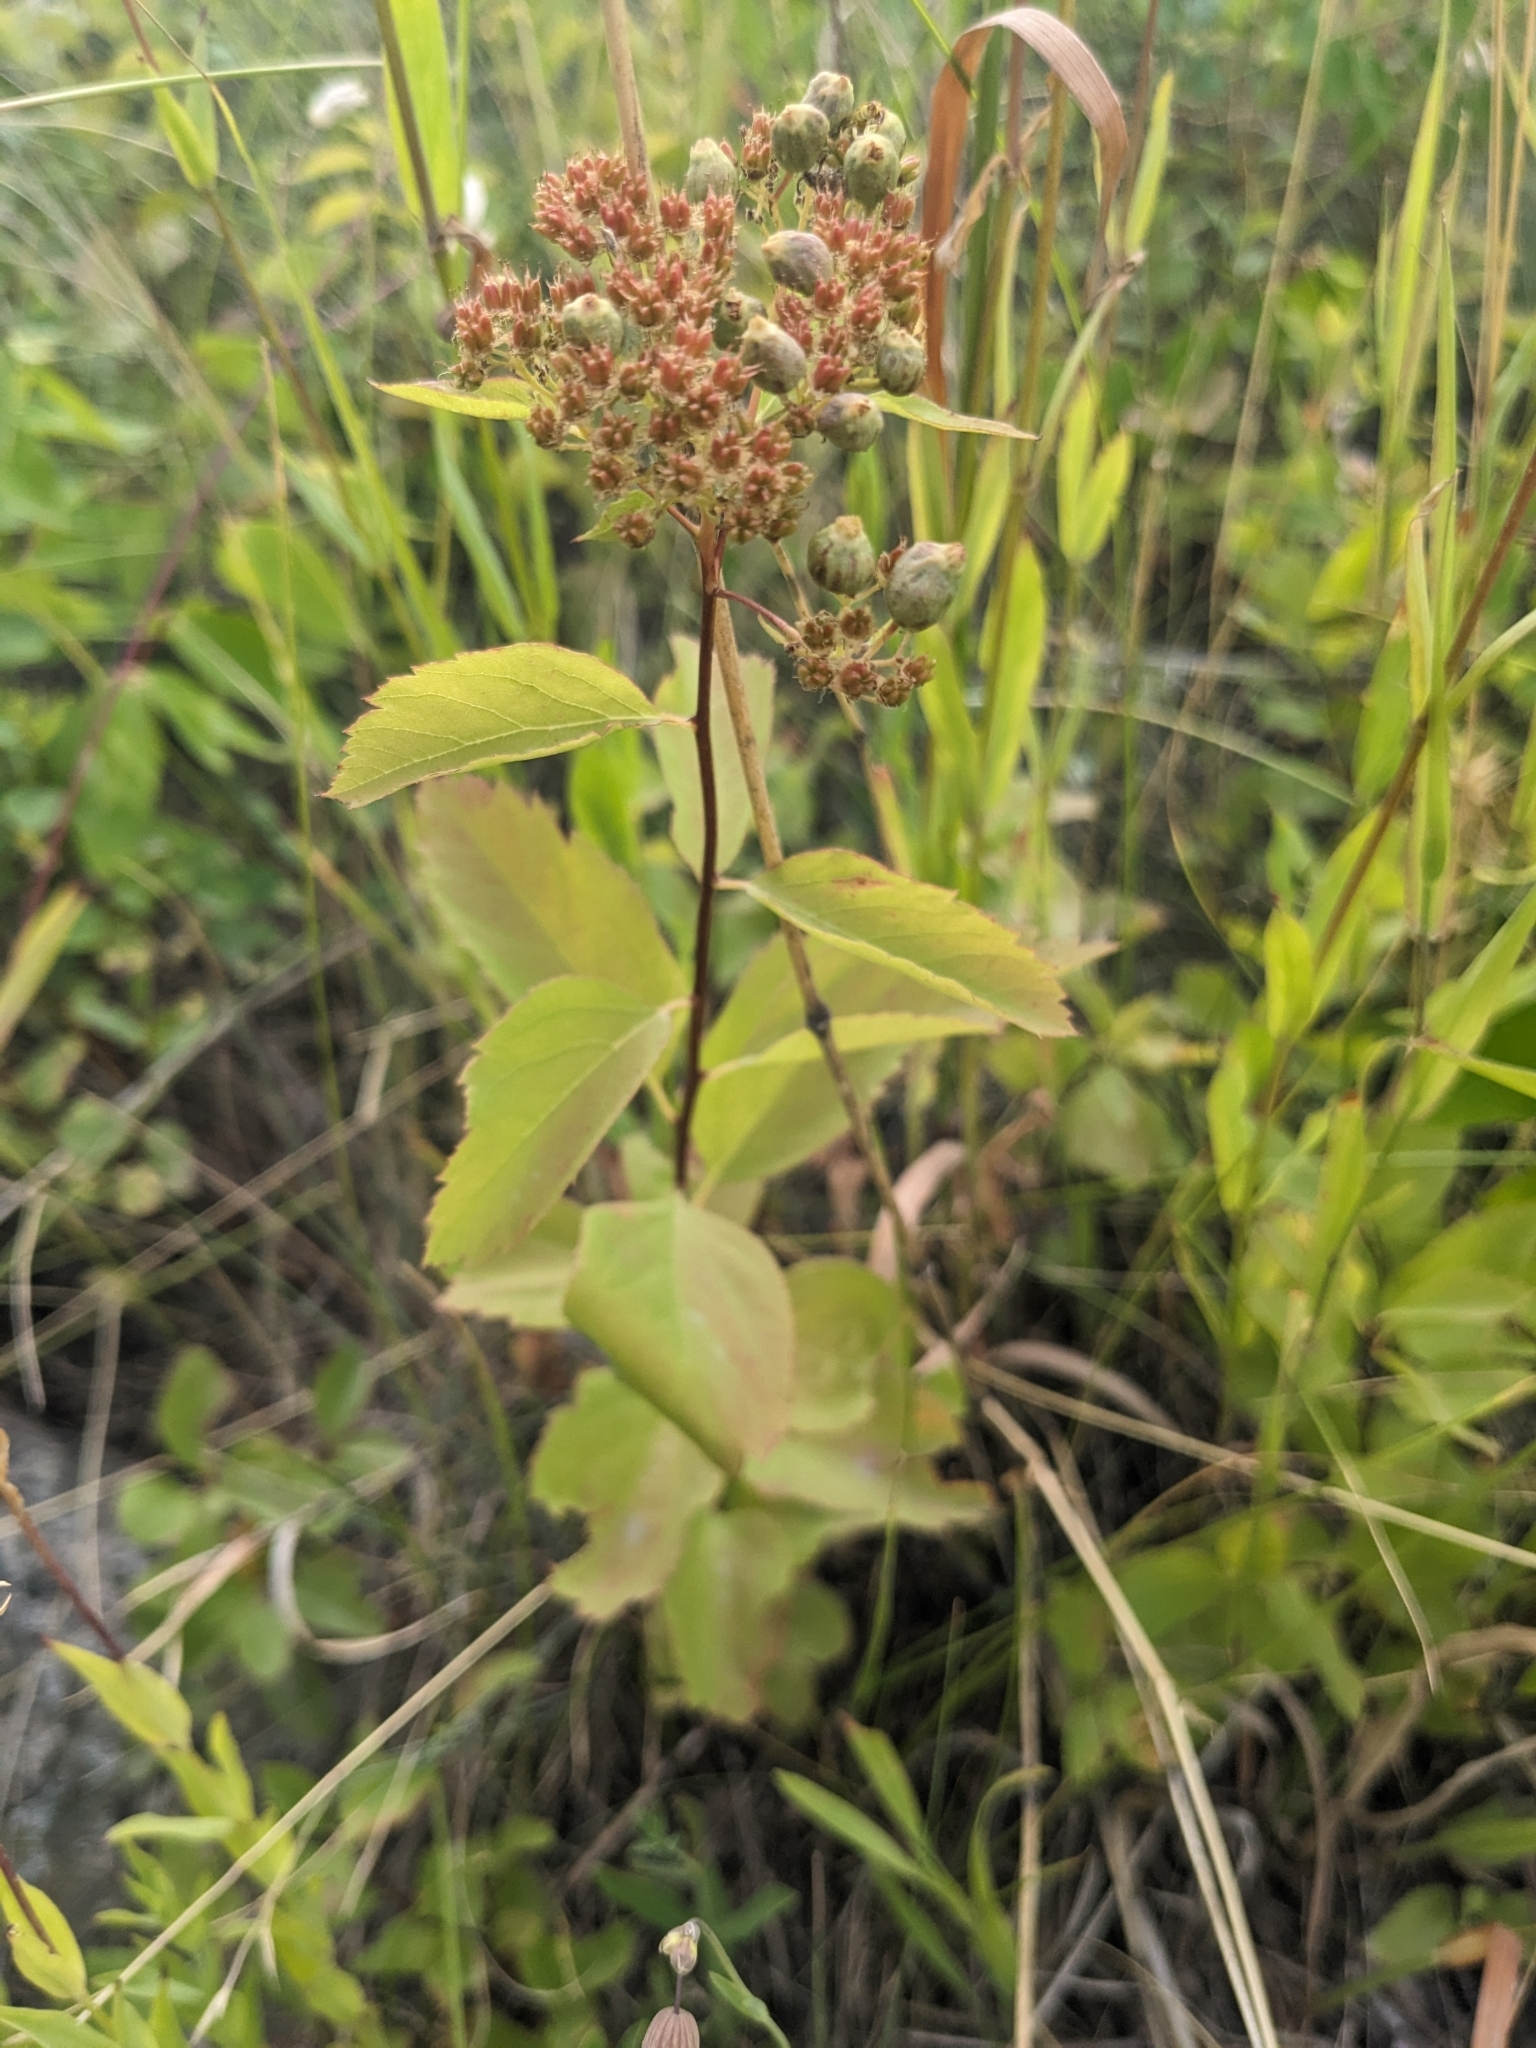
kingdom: Plantae
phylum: Tracheophyta
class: Magnoliopsida
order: Rosales
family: Rosaceae
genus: Spiraea
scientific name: Spiraea lucida
